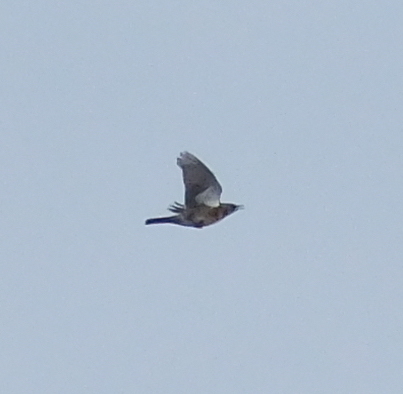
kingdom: Animalia
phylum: Chordata
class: Aves
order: Passeriformes
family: Turdidae
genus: Turdus
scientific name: Turdus pilaris
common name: Fieldfare
